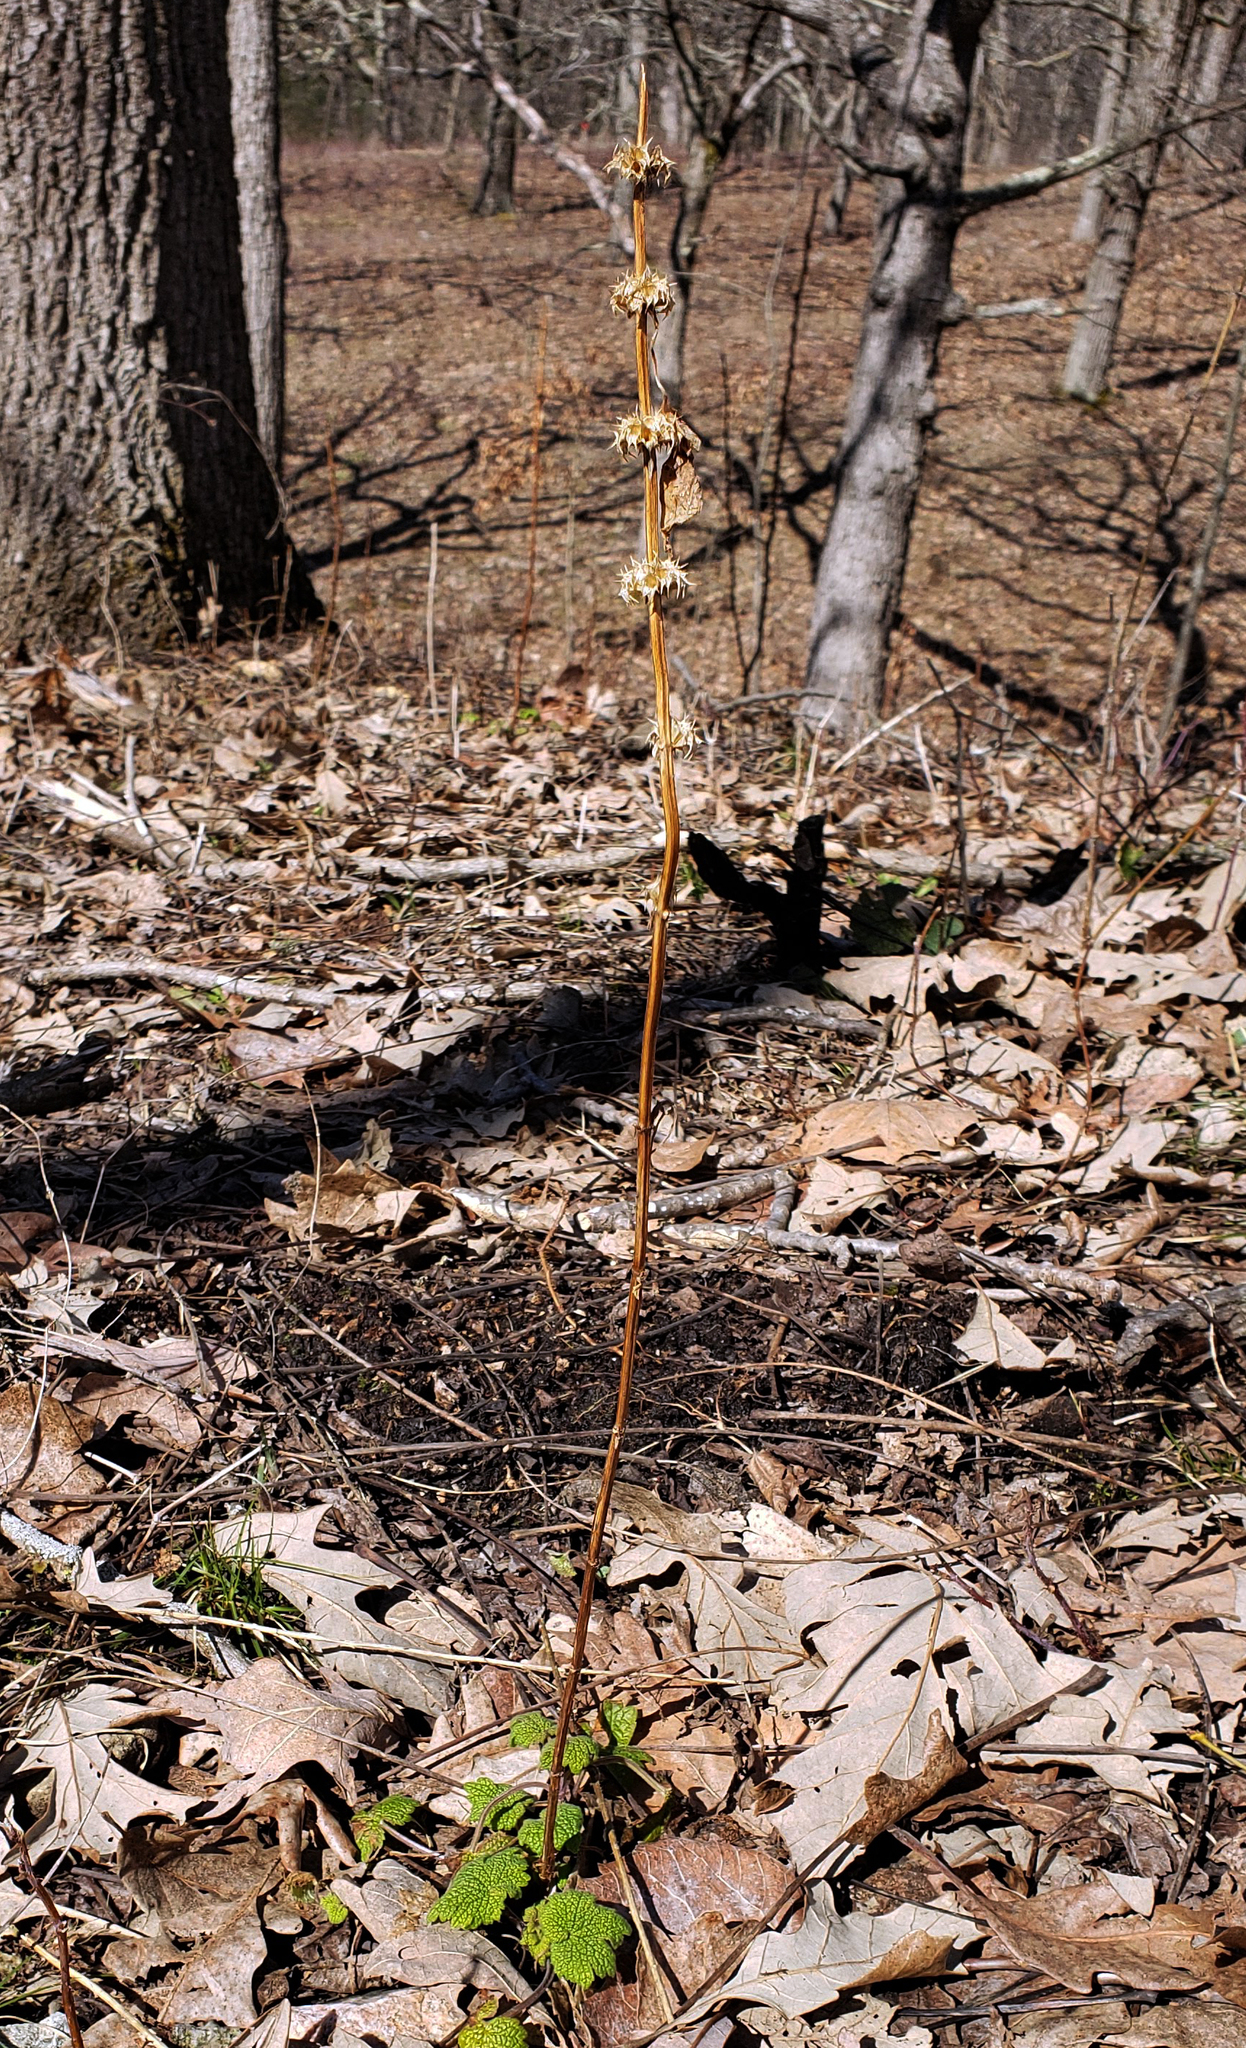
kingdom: Plantae
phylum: Tracheophyta
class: Magnoliopsida
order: Lamiales
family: Lamiaceae
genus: Leonurus
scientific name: Leonurus cardiaca
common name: Motherwort
